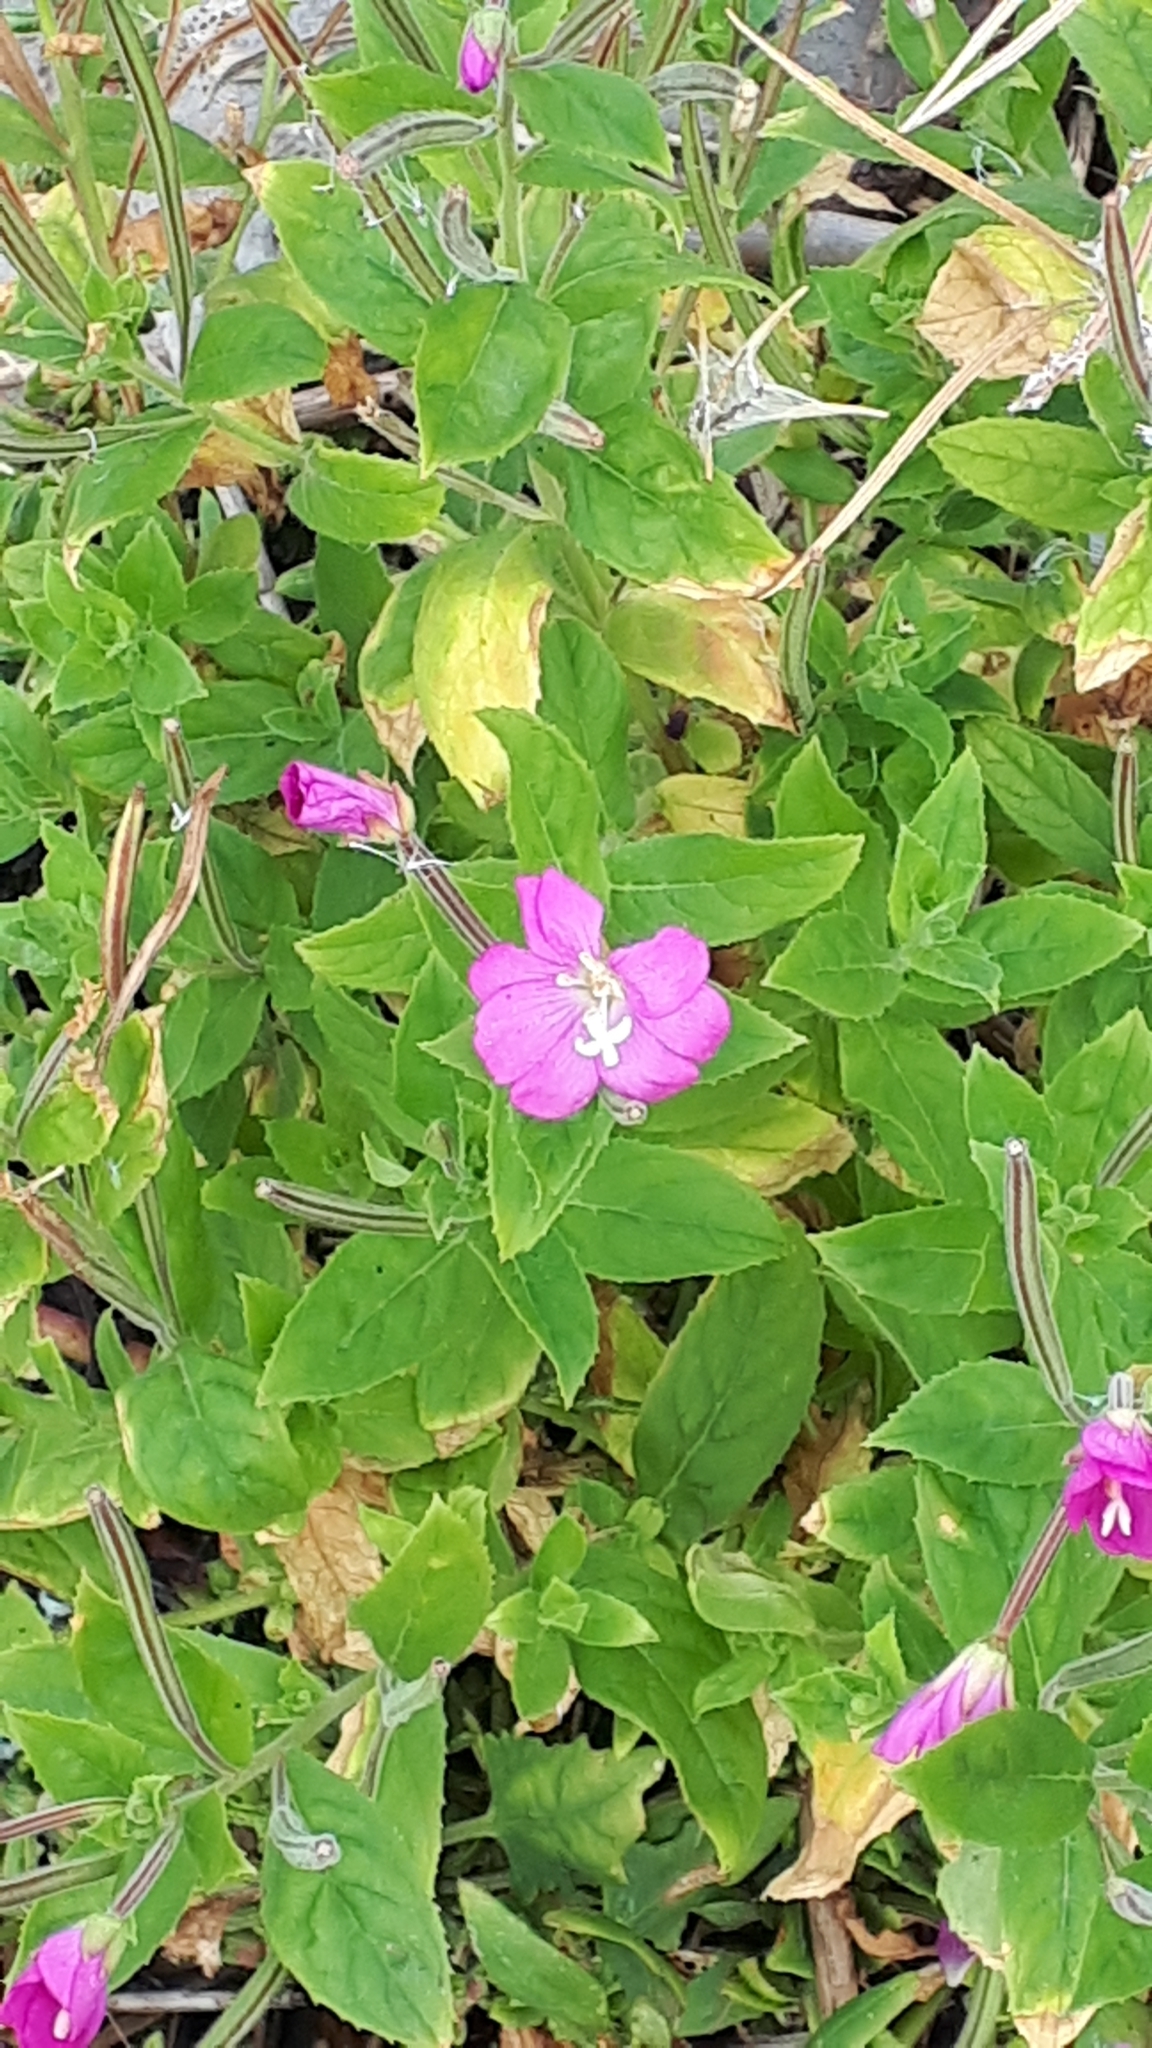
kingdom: Plantae
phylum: Tracheophyta
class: Magnoliopsida
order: Myrtales
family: Onagraceae
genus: Epilobium
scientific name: Epilobium hirsutum
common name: Great willowherb
